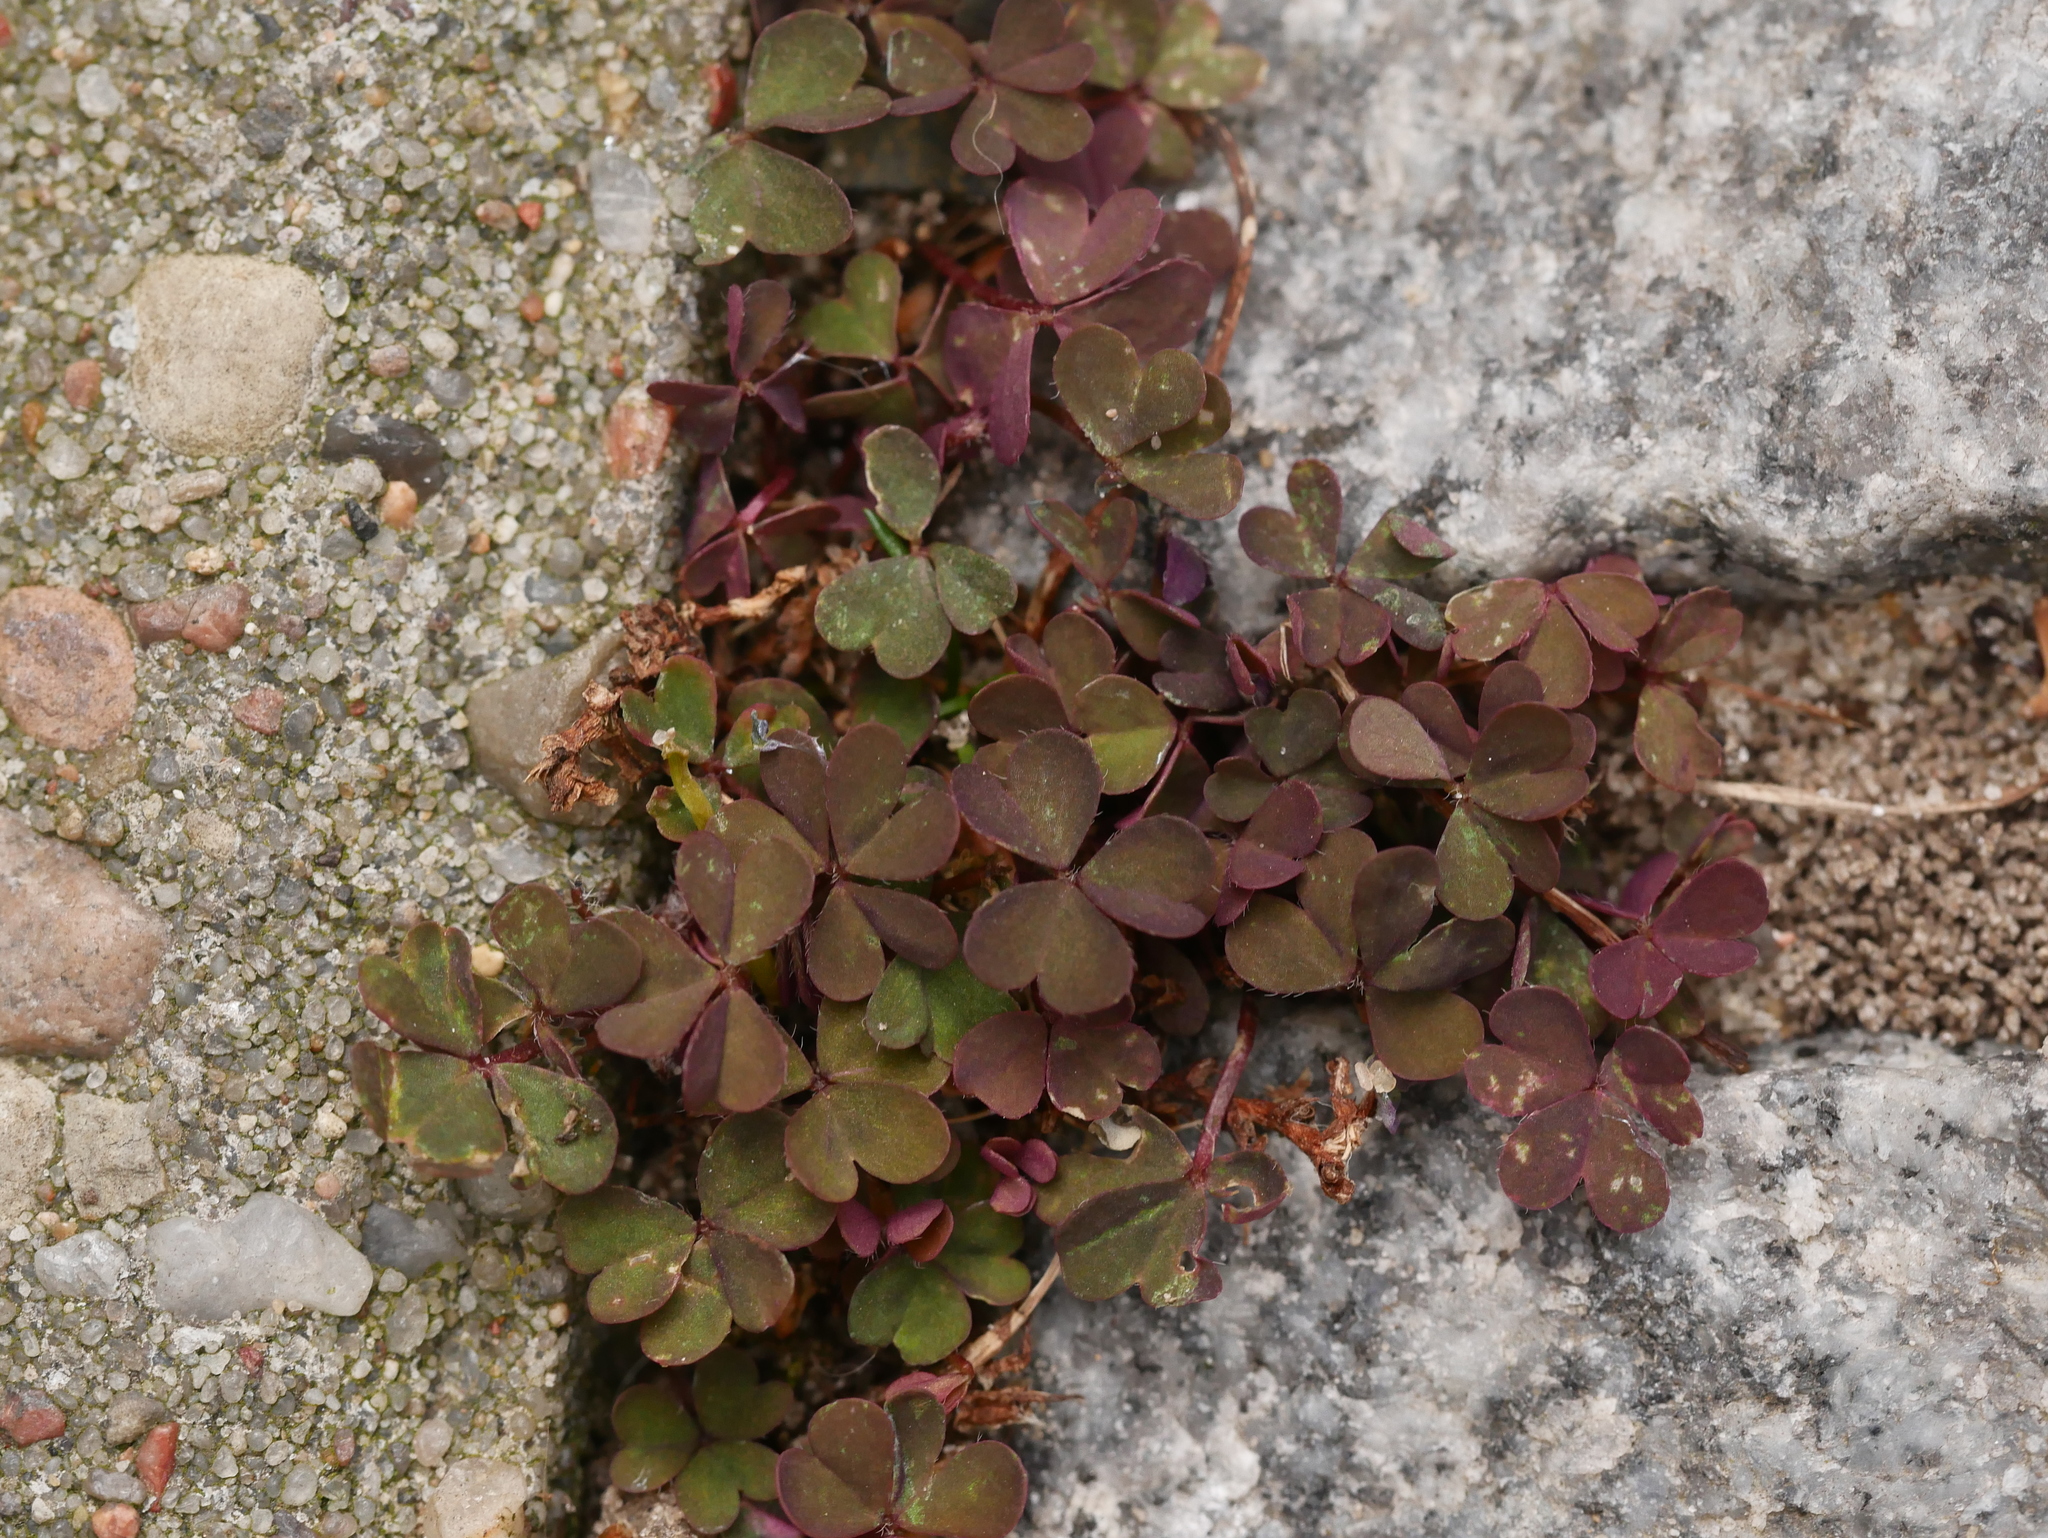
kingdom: Plantae
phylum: Tracheophyta
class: Magnoliopsida
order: Oxalidales
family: Oxalidaceae
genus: Oxalis
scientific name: Oxalis corniculata
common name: Procumbent yellow-sorrel
